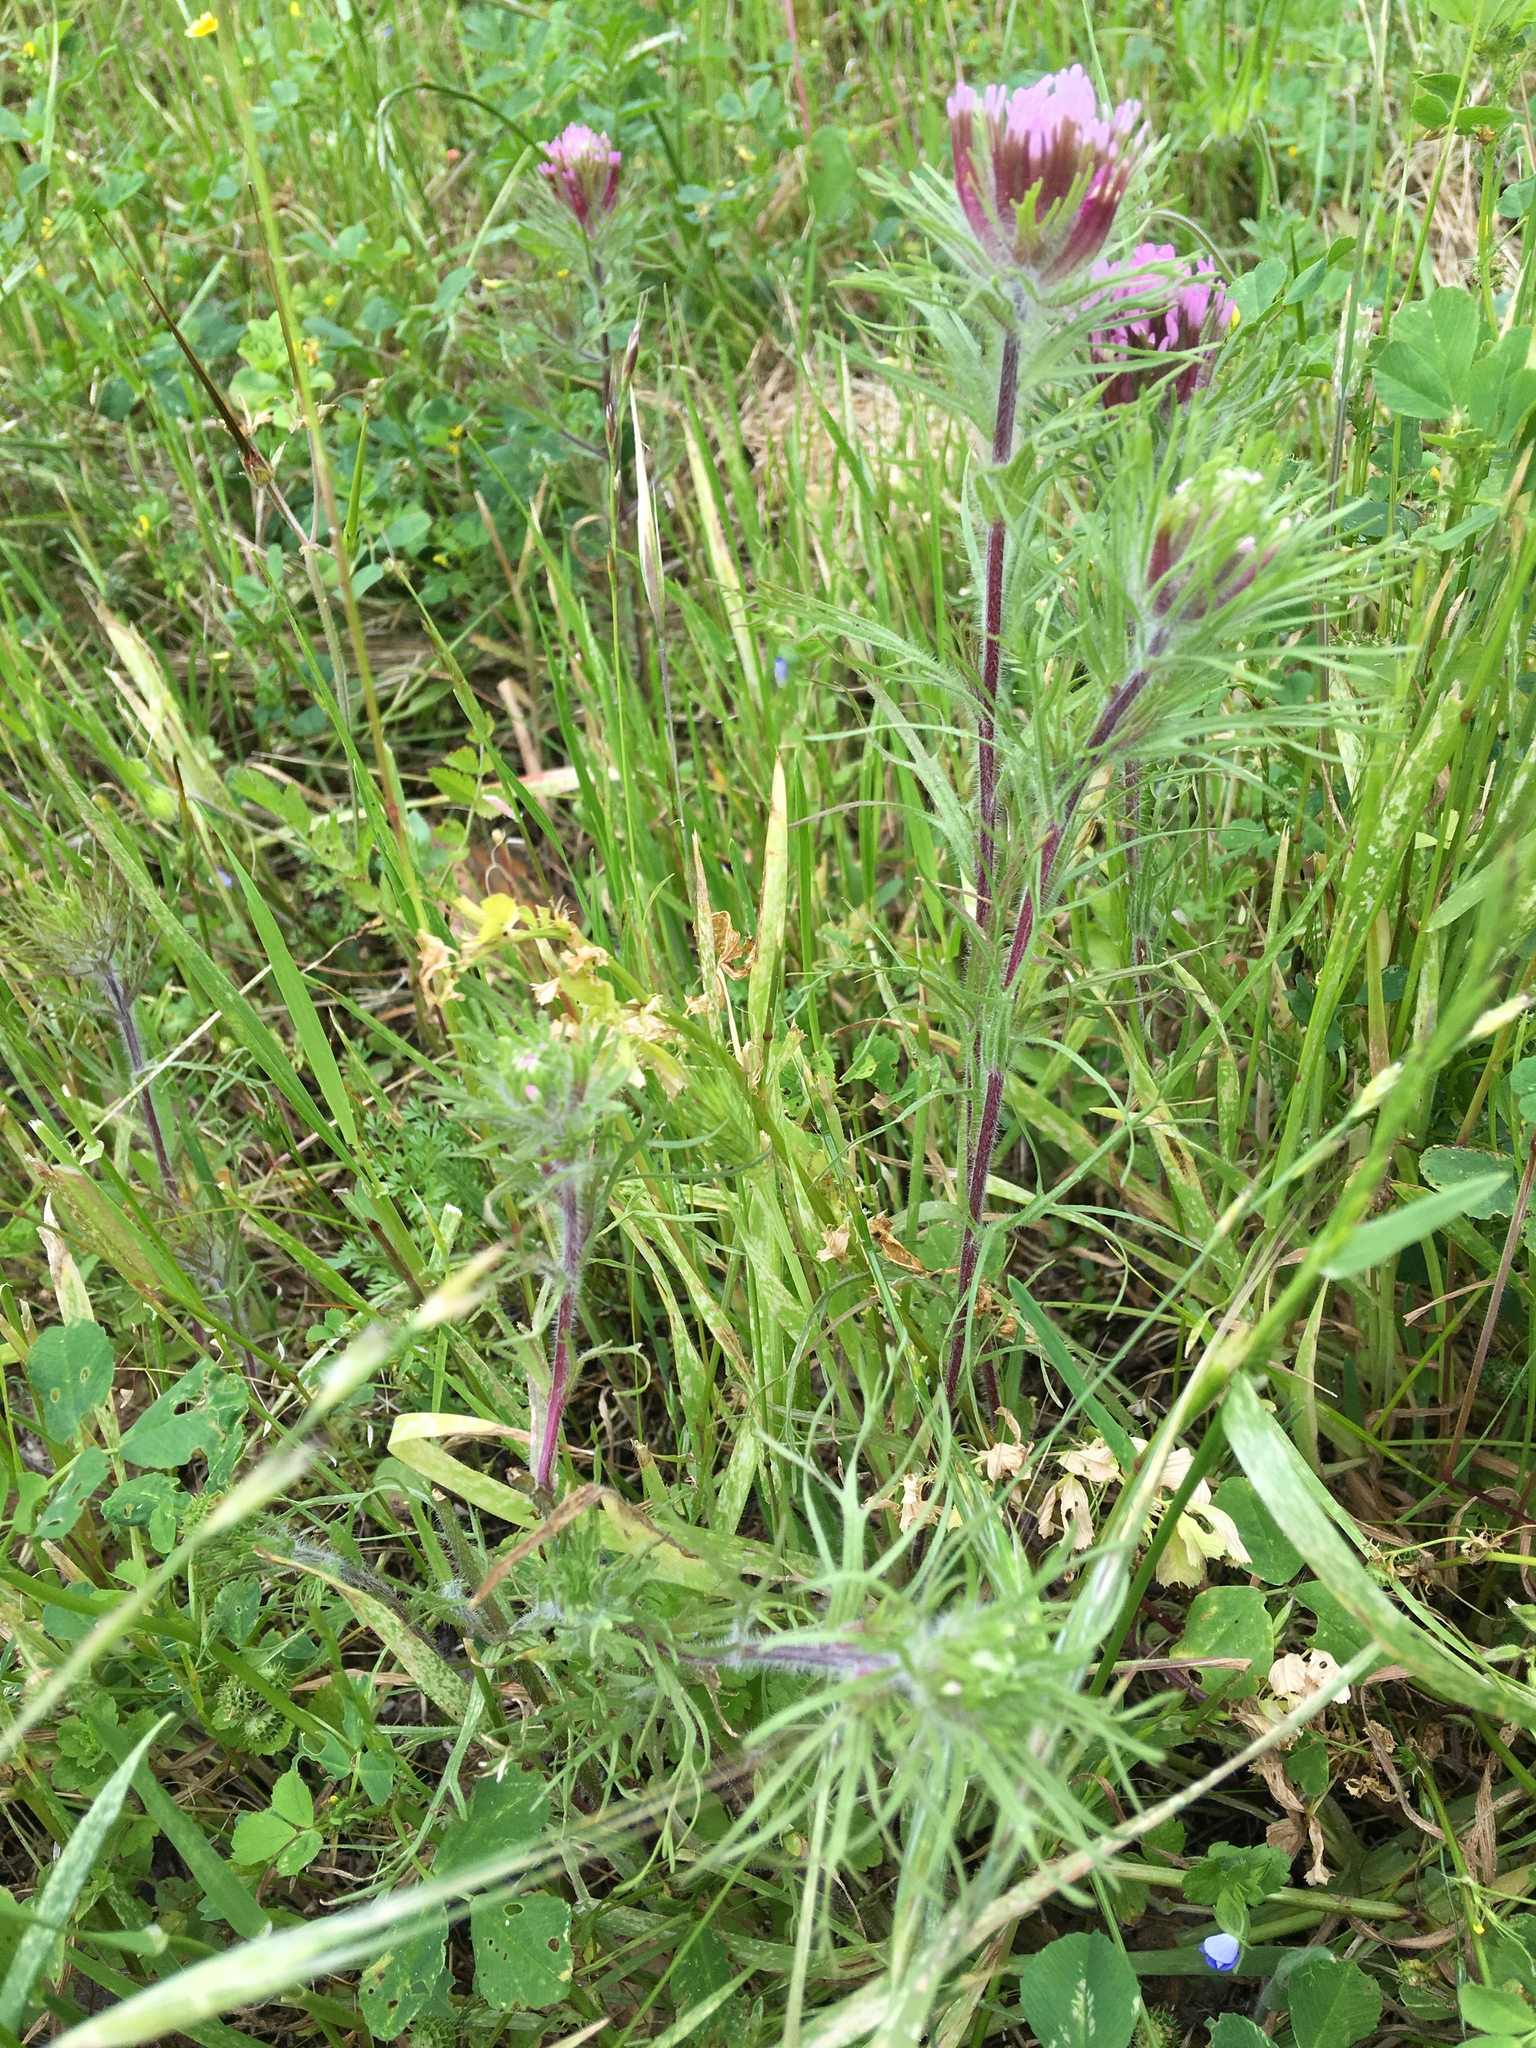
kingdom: Plantae
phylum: Tracheophyta
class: Magnoliopsida
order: Lamiales
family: Orobanchaceae
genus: Castilleja
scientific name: Castilleja exserta
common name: Purple owl-clover
